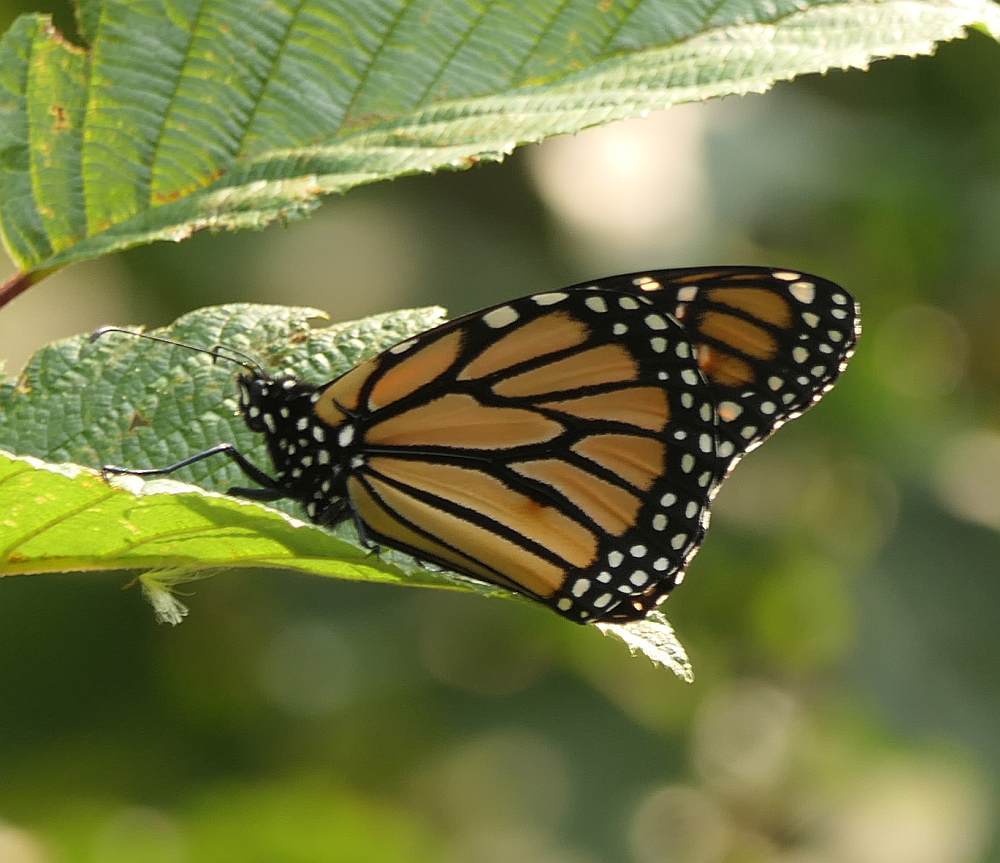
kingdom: Animalia
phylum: Arthropoda
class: Insecta
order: Lepidoptera
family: Nymphalidae
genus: Danaus
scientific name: Danaus plexippus
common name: Monarch
